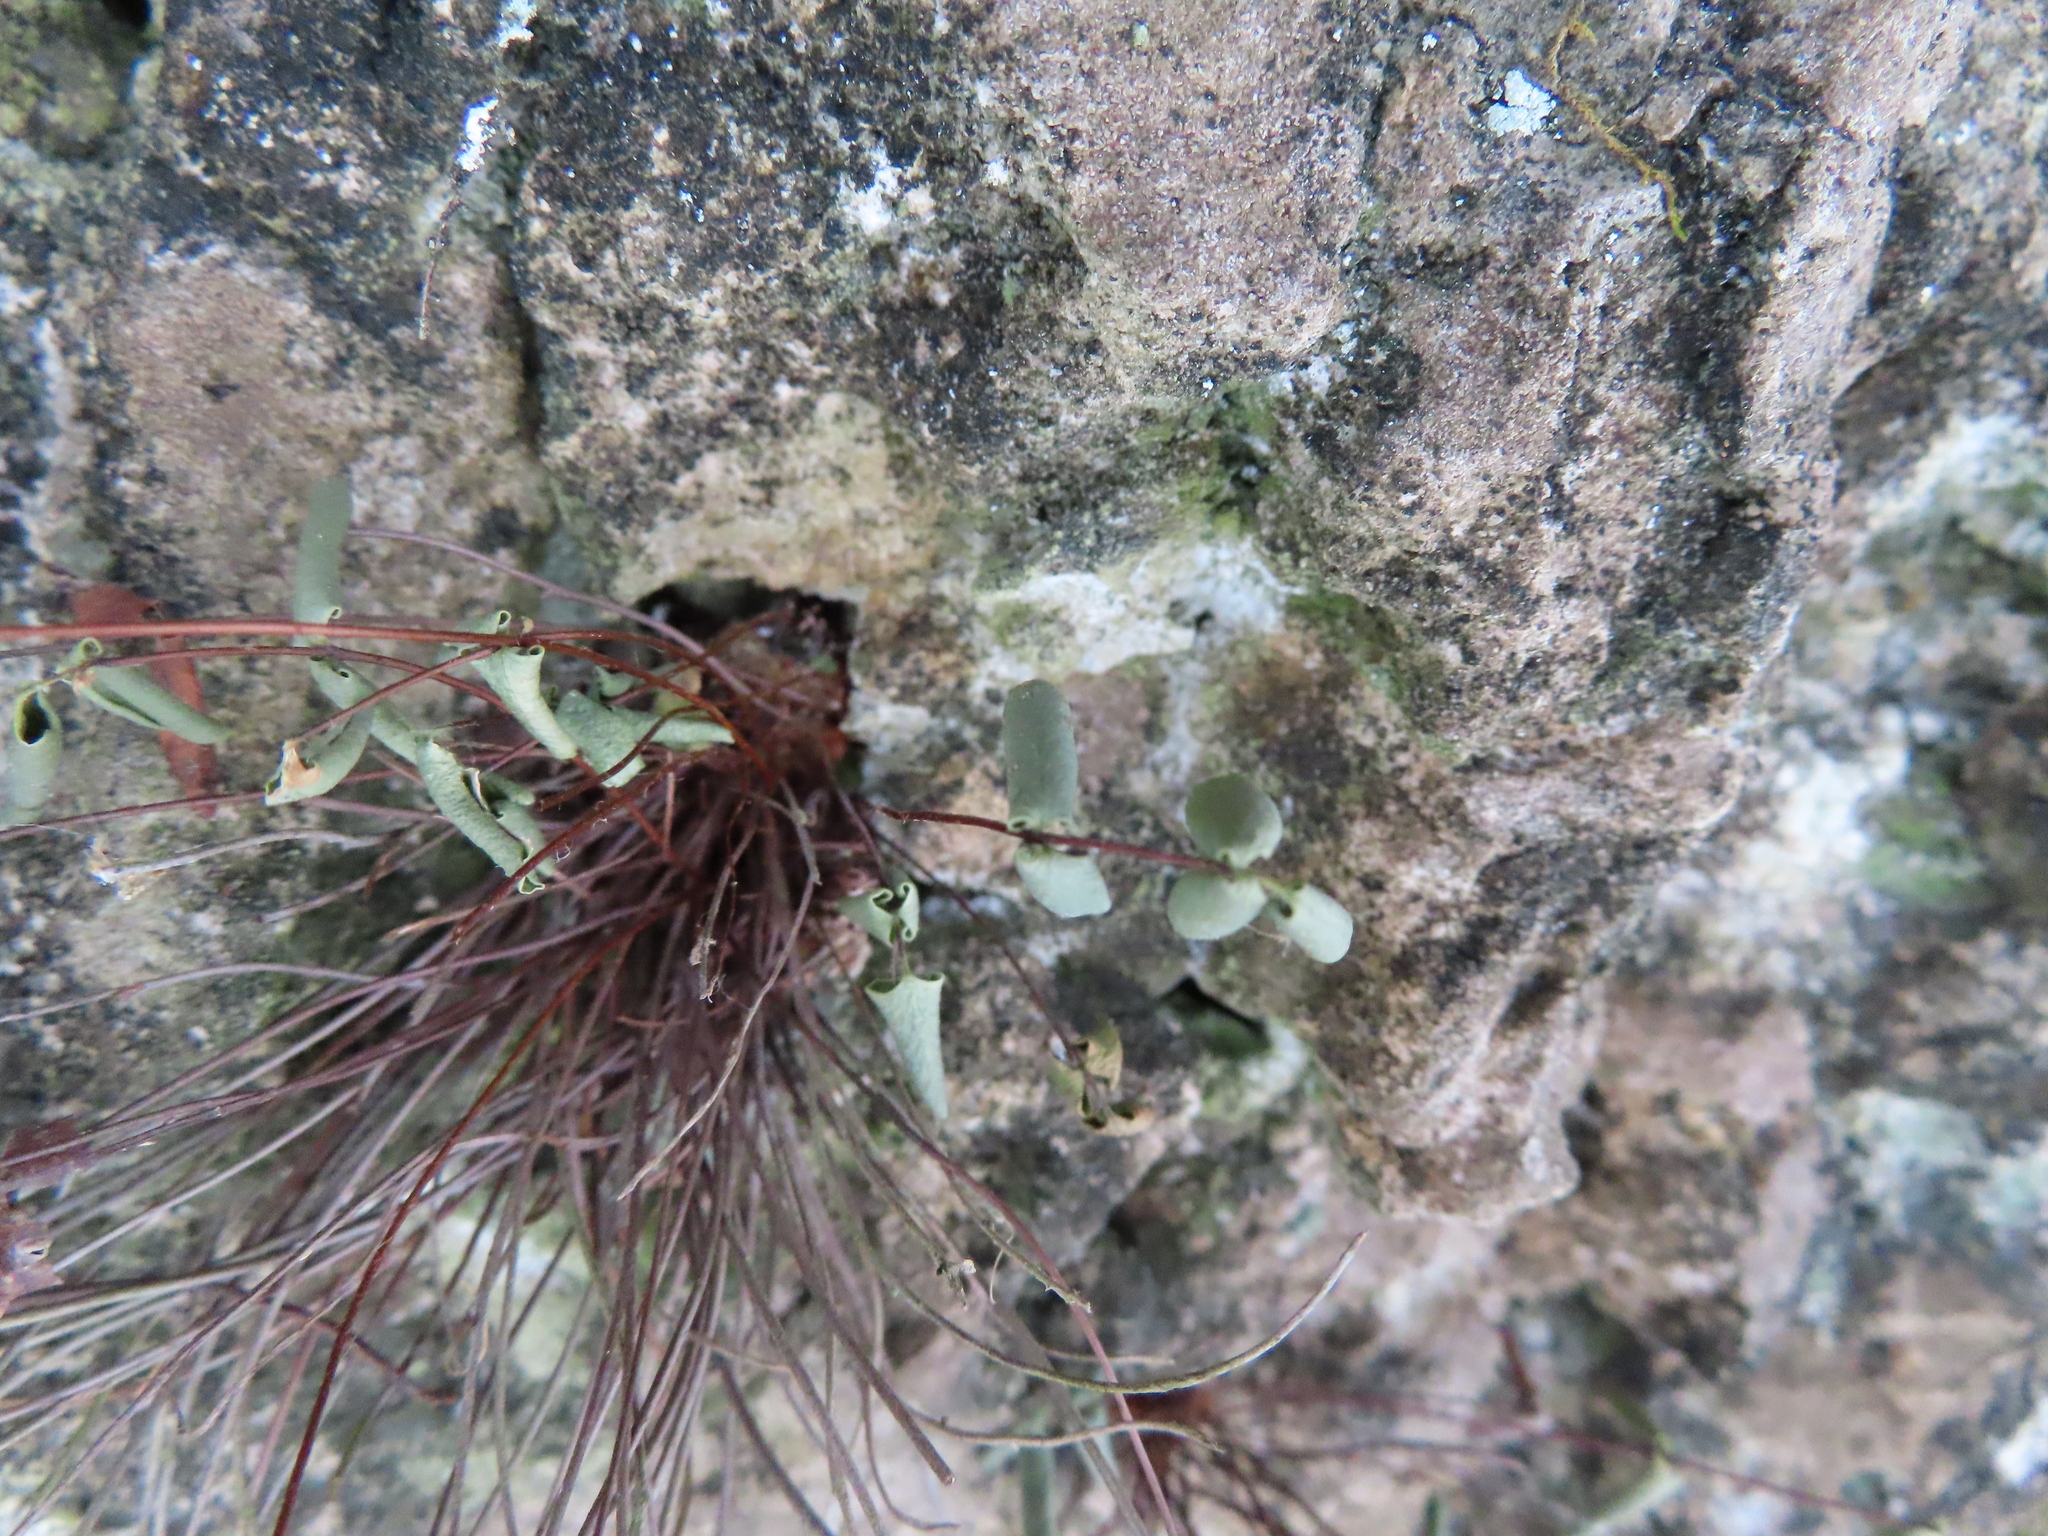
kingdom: Plantae
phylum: Tracheophyta
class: Polypodiopsida
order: Polypodiales
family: Pteridaceae
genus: Pellaea
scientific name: Pellaea glabella
